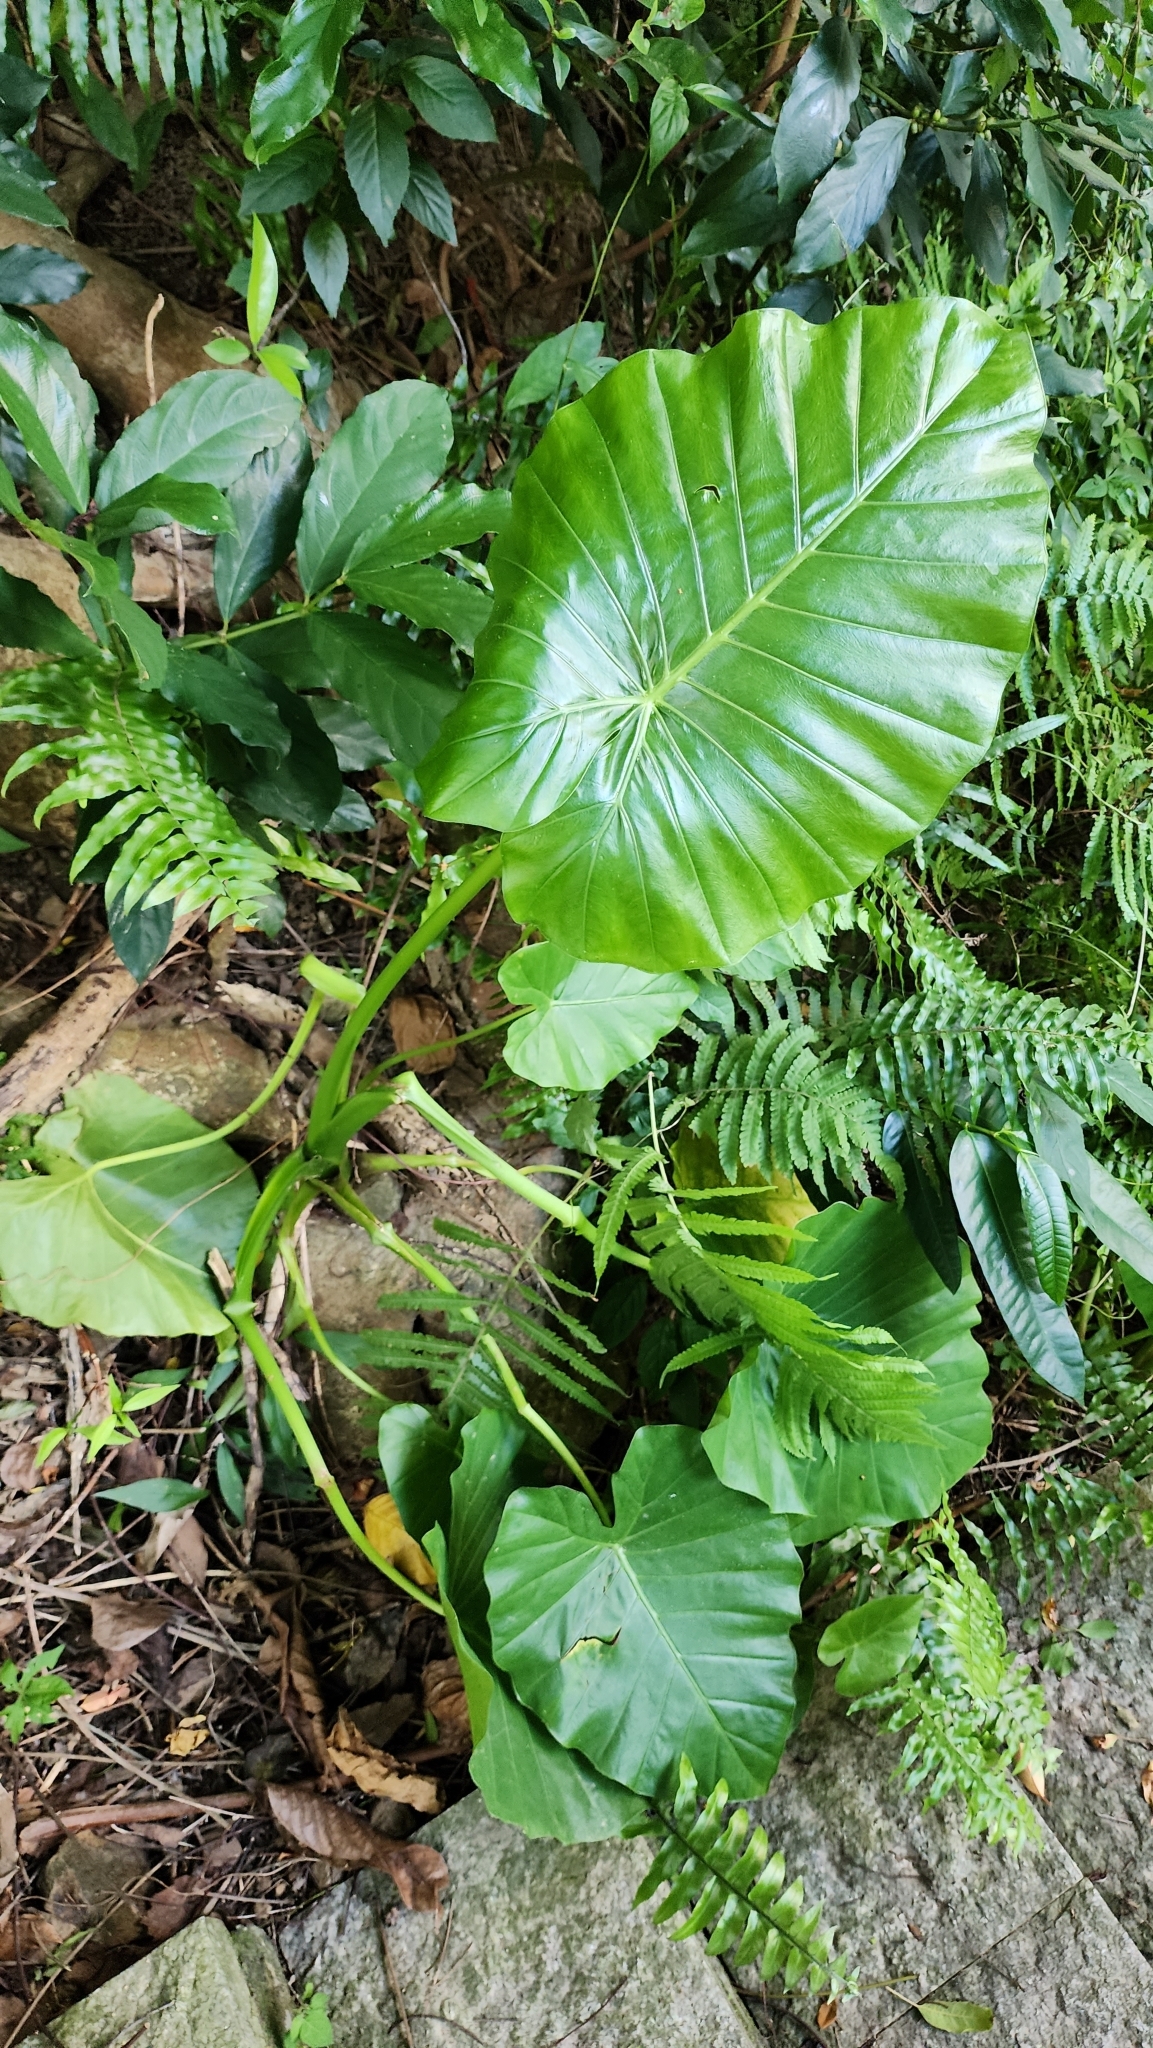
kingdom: Plantae
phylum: Tracheophyta
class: Liliopsida
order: Alismatales
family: Araceae
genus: Alocasia
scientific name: Alocasia odora
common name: Asian taro
